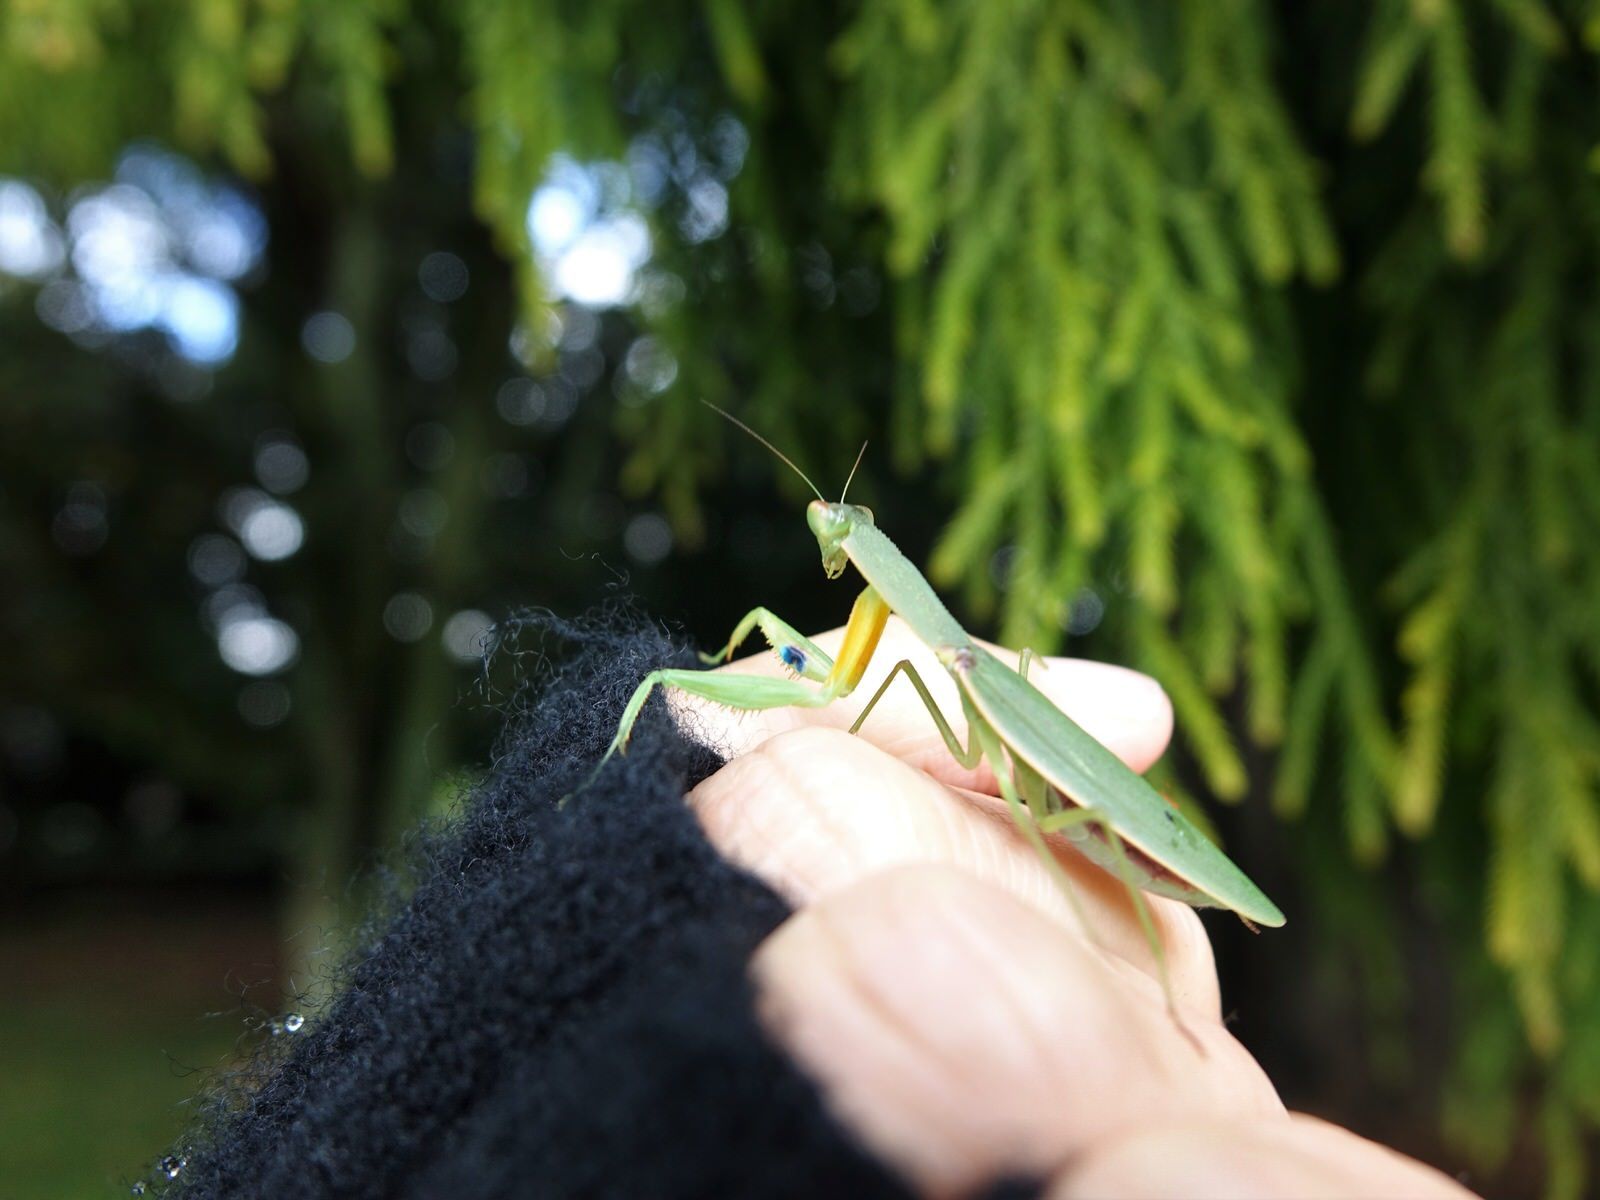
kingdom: Animalia
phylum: Arthropoda
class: Insecta
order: Mantodea
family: Mantidae
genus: Orthodera
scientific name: Orthodera novaezealandiae
